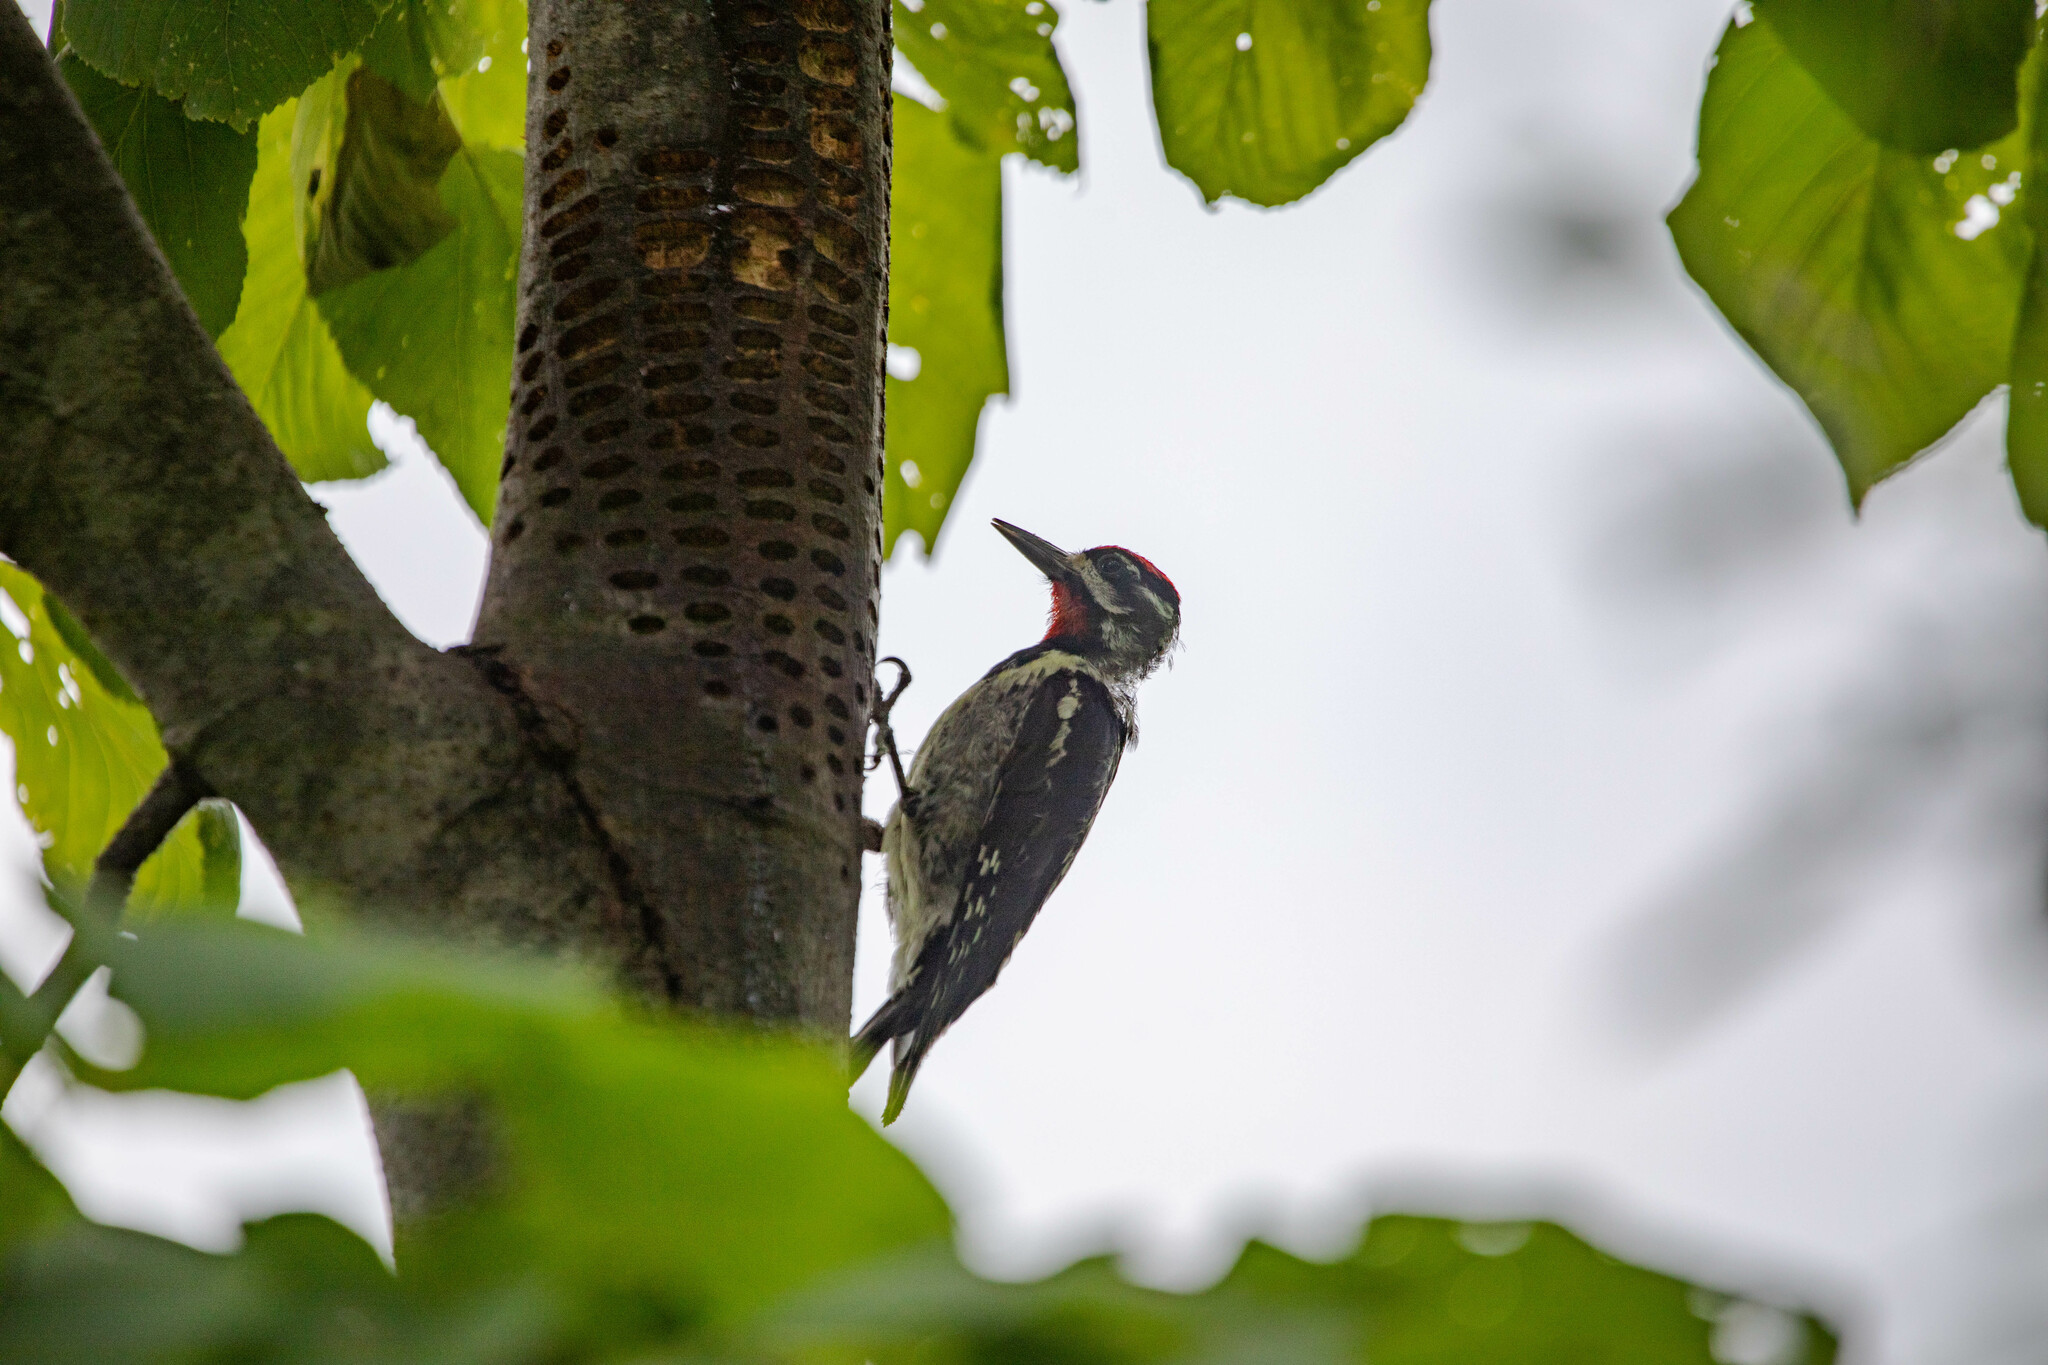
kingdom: Animalia
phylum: Chordata
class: Aves
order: Piciformes
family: Picidae
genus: Sphyrapicus
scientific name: Sphyrapicus varius
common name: Yellow-bellied sapsucker
